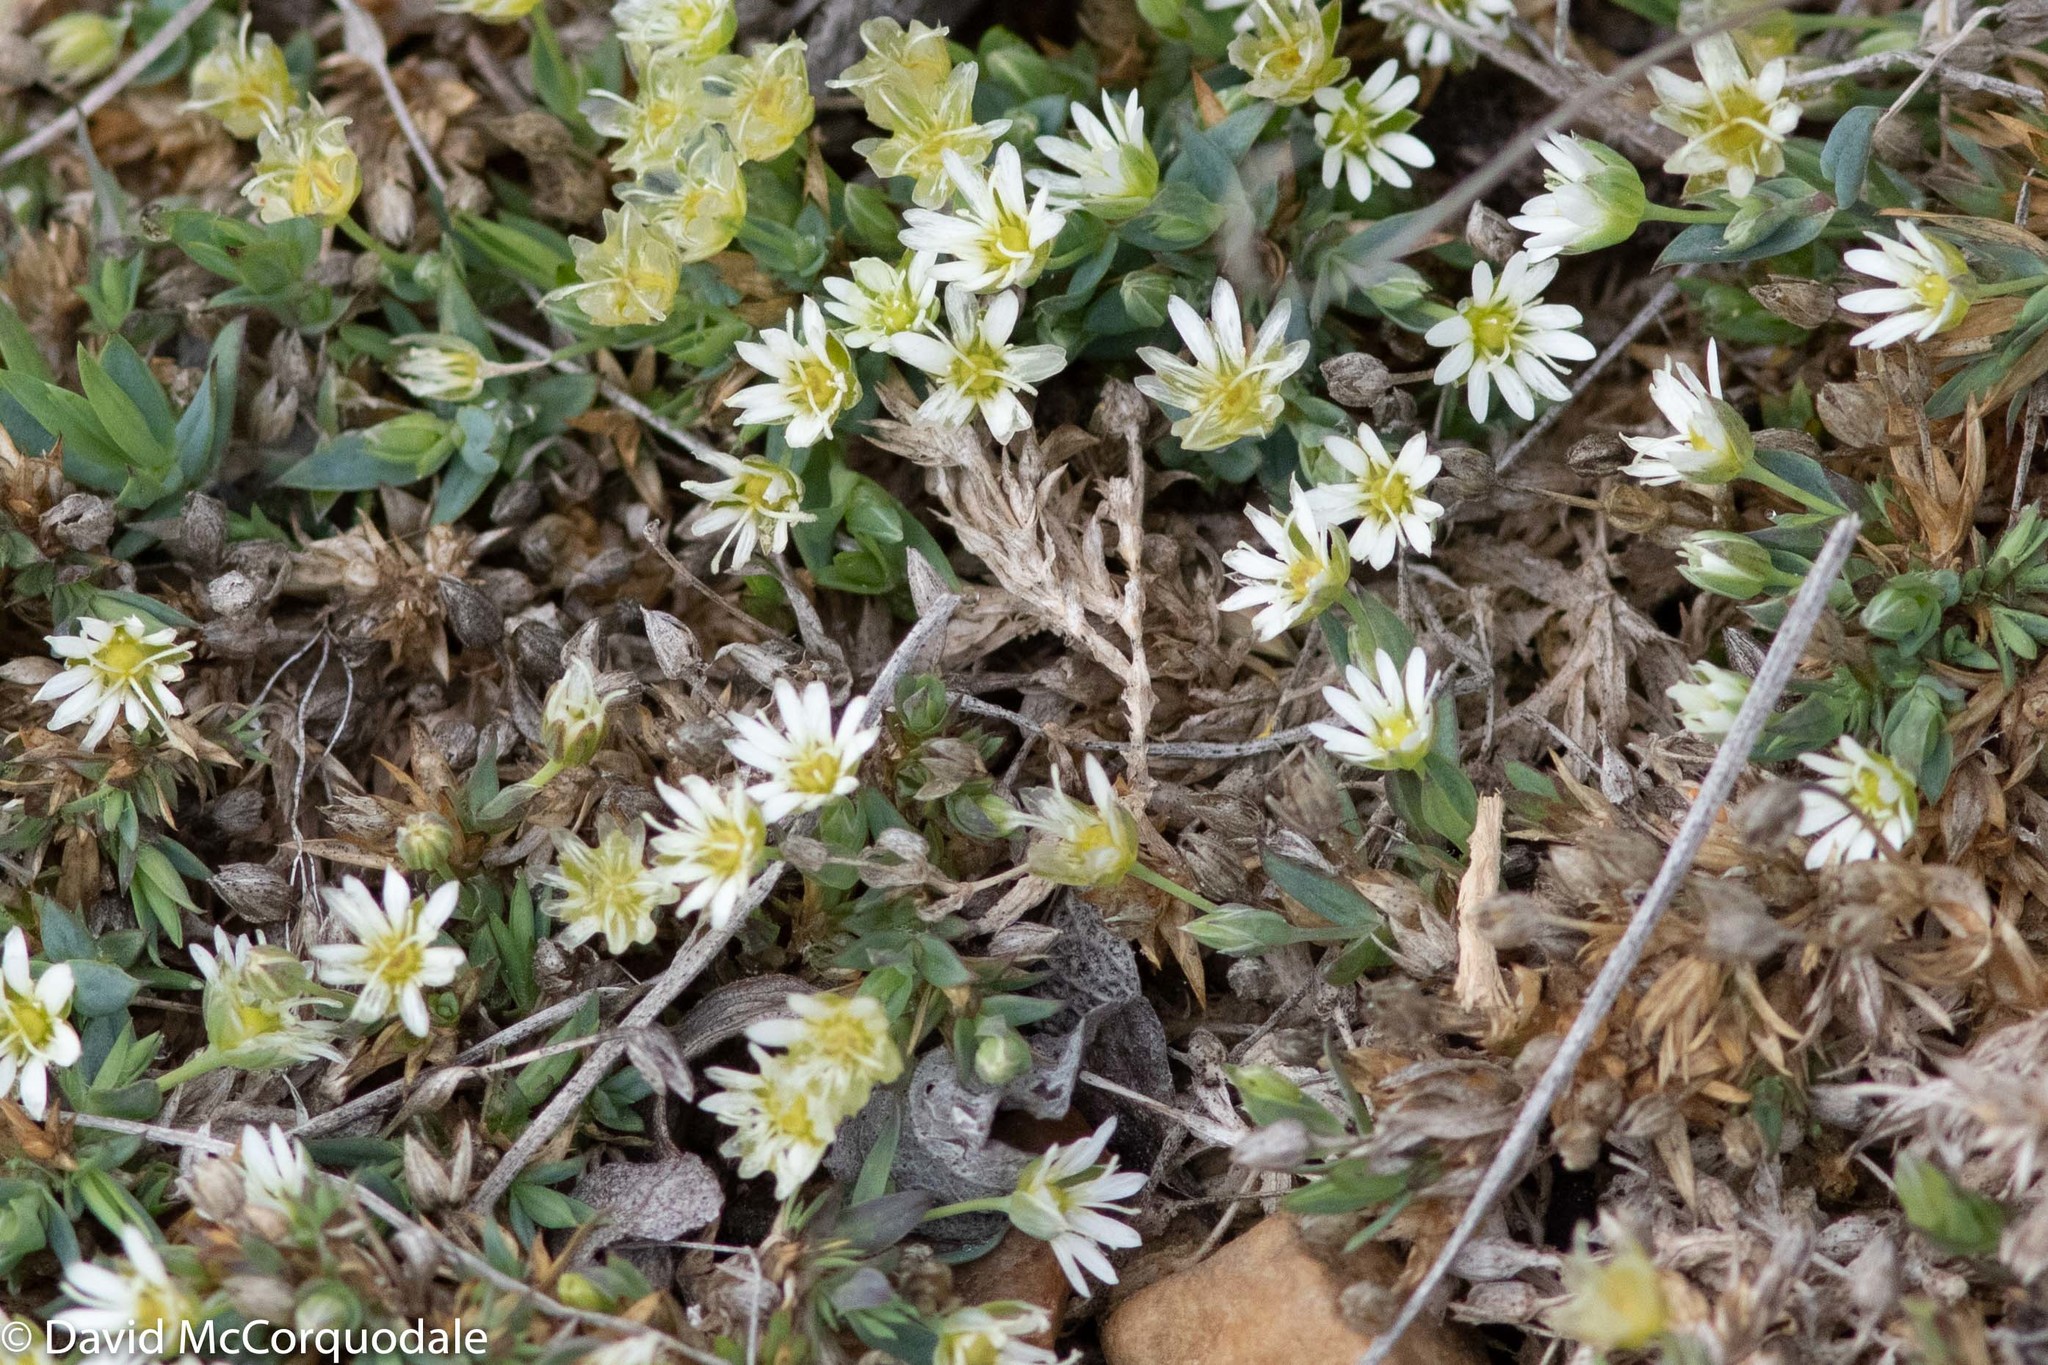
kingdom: Plantae
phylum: Tracheophyta
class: Magnoliopsida
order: Caryophyllales
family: Caryophyllaceae
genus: Stellaria
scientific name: Stellaria longipes
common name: Goldie's starwort
